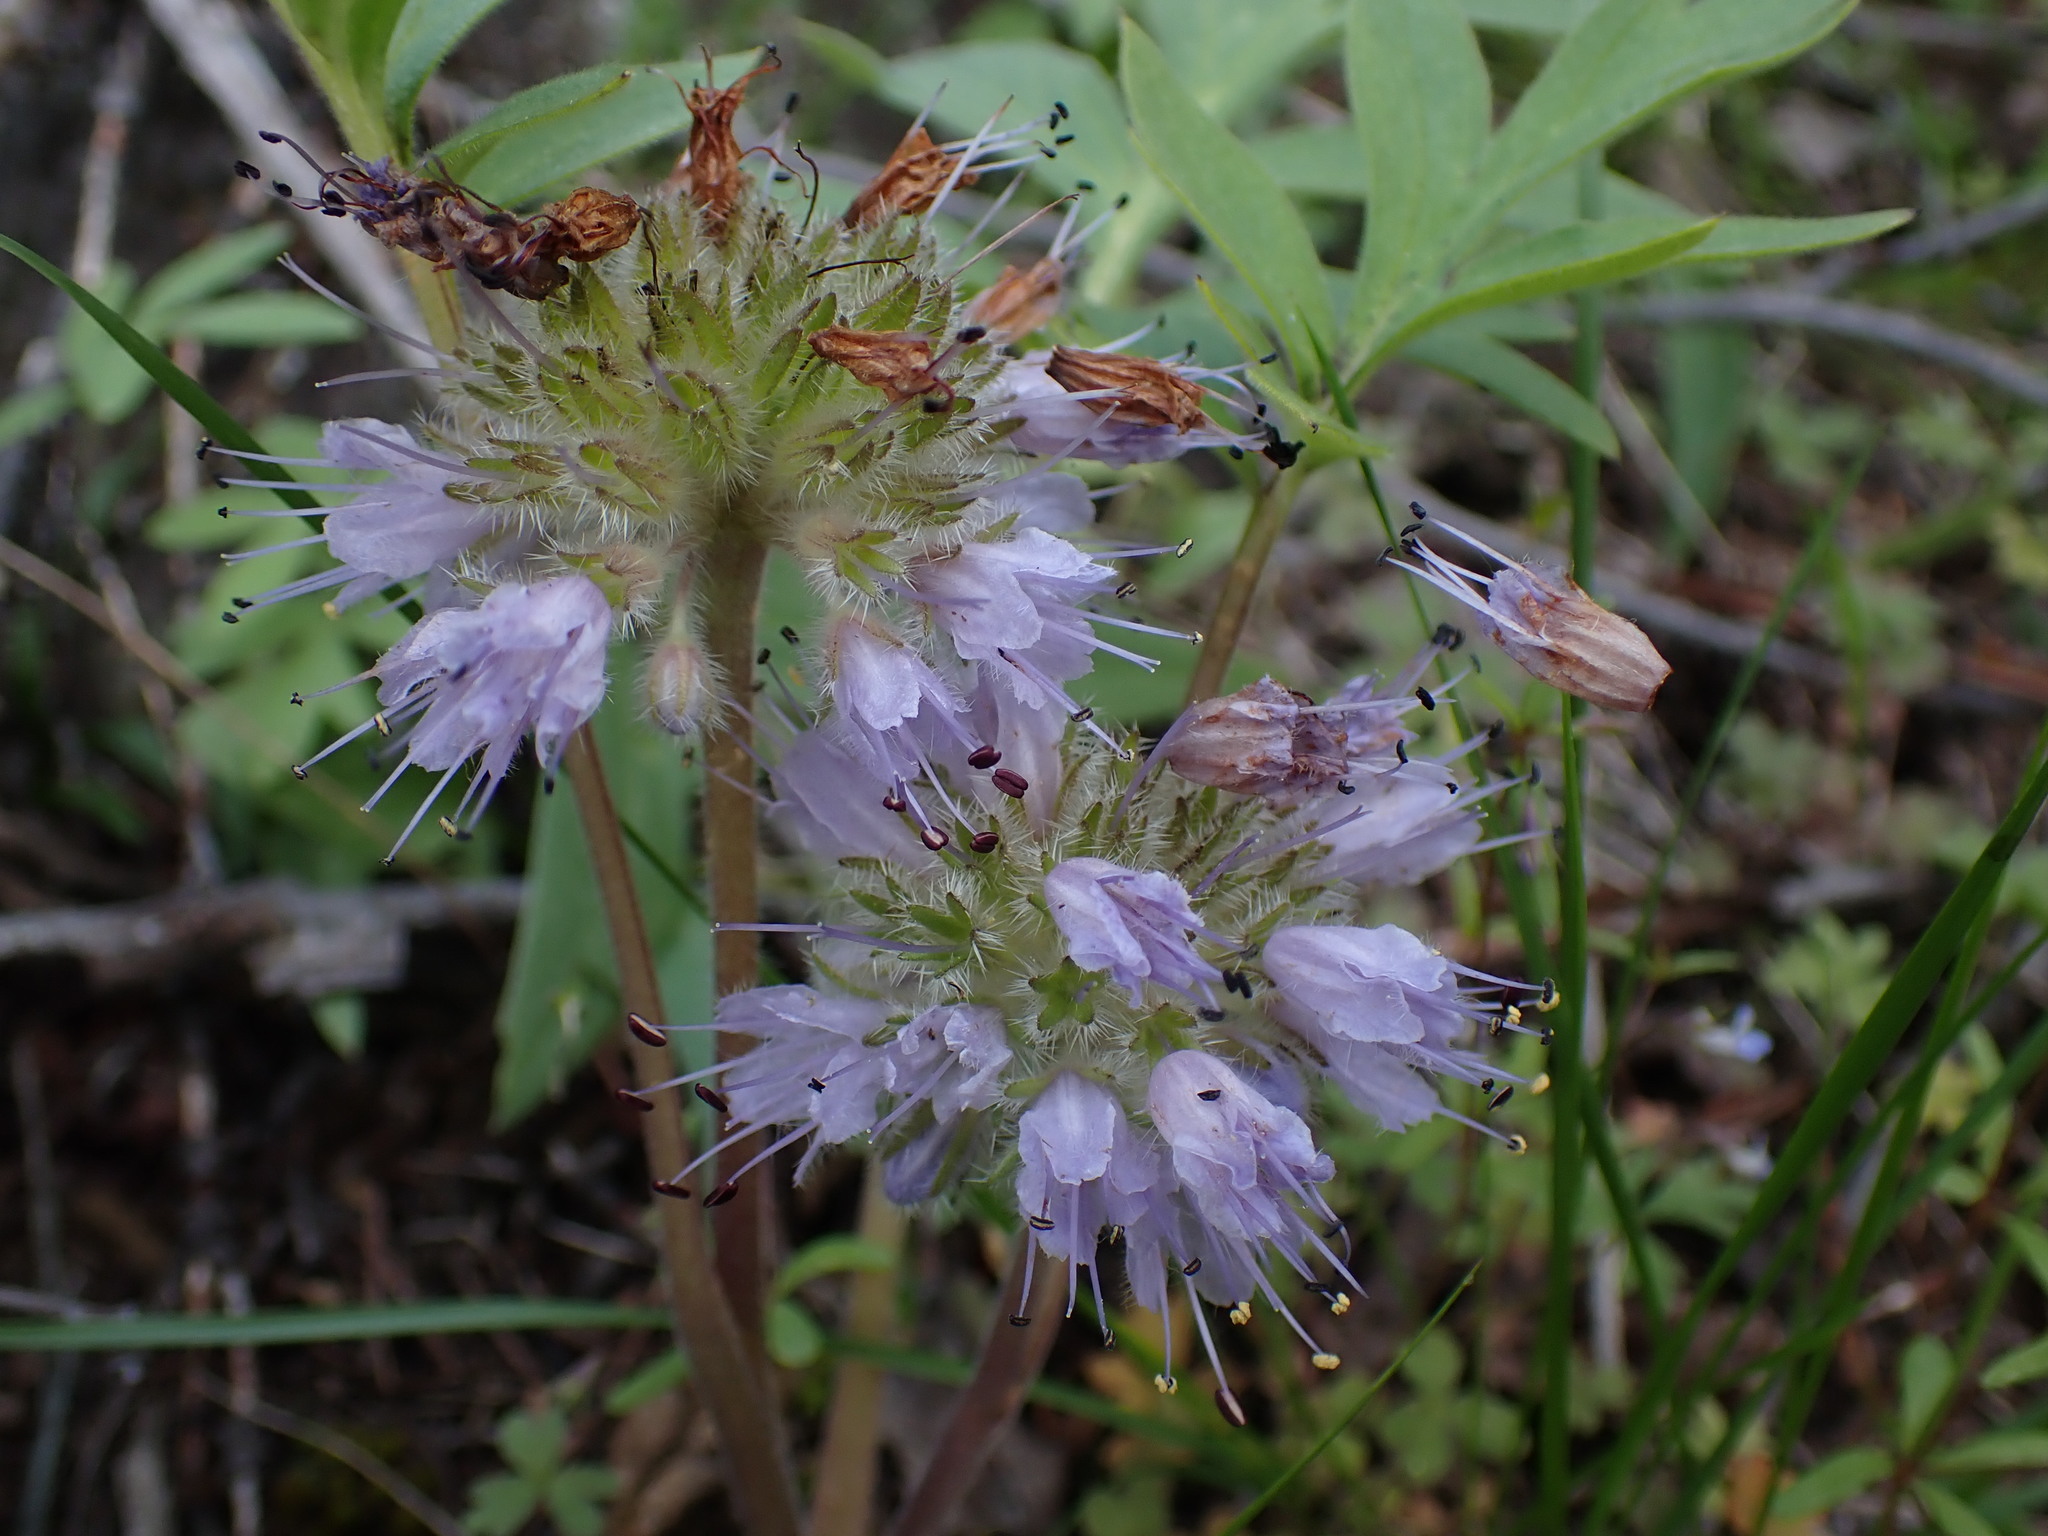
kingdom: Plantae
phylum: Tracheophyta
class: Magnoliopsida
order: Boraginales
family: Hydrophyllaceae
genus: Hydrophyllum
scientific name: Hydrophyllum capitatum
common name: Woollen-breeches
